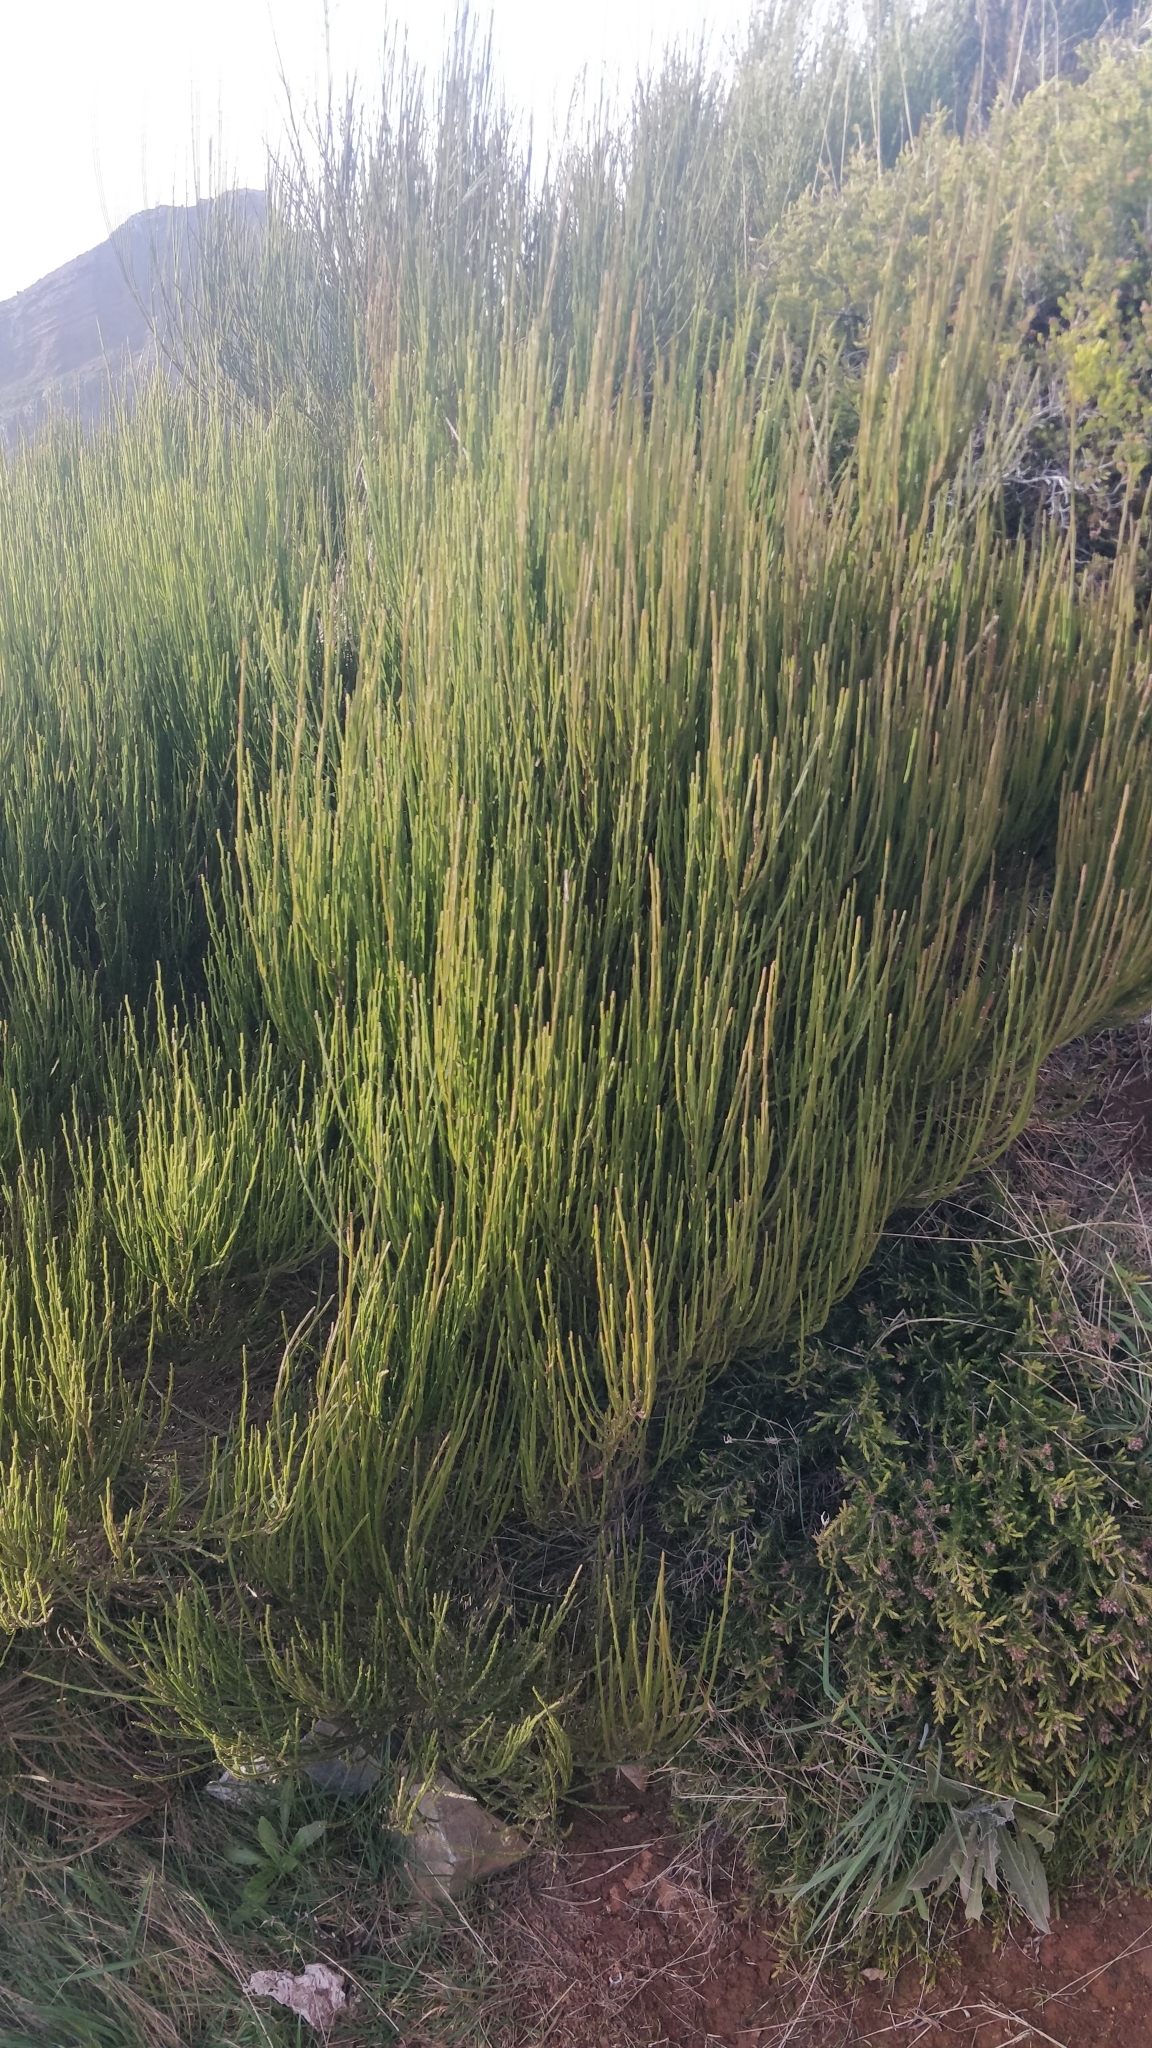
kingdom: Plantae
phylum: Tracheophyta
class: Magnoliopsida
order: Fabales
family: Fabaceae
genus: Cytisus
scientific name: Cytisus scoparius
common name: Scotch broom
